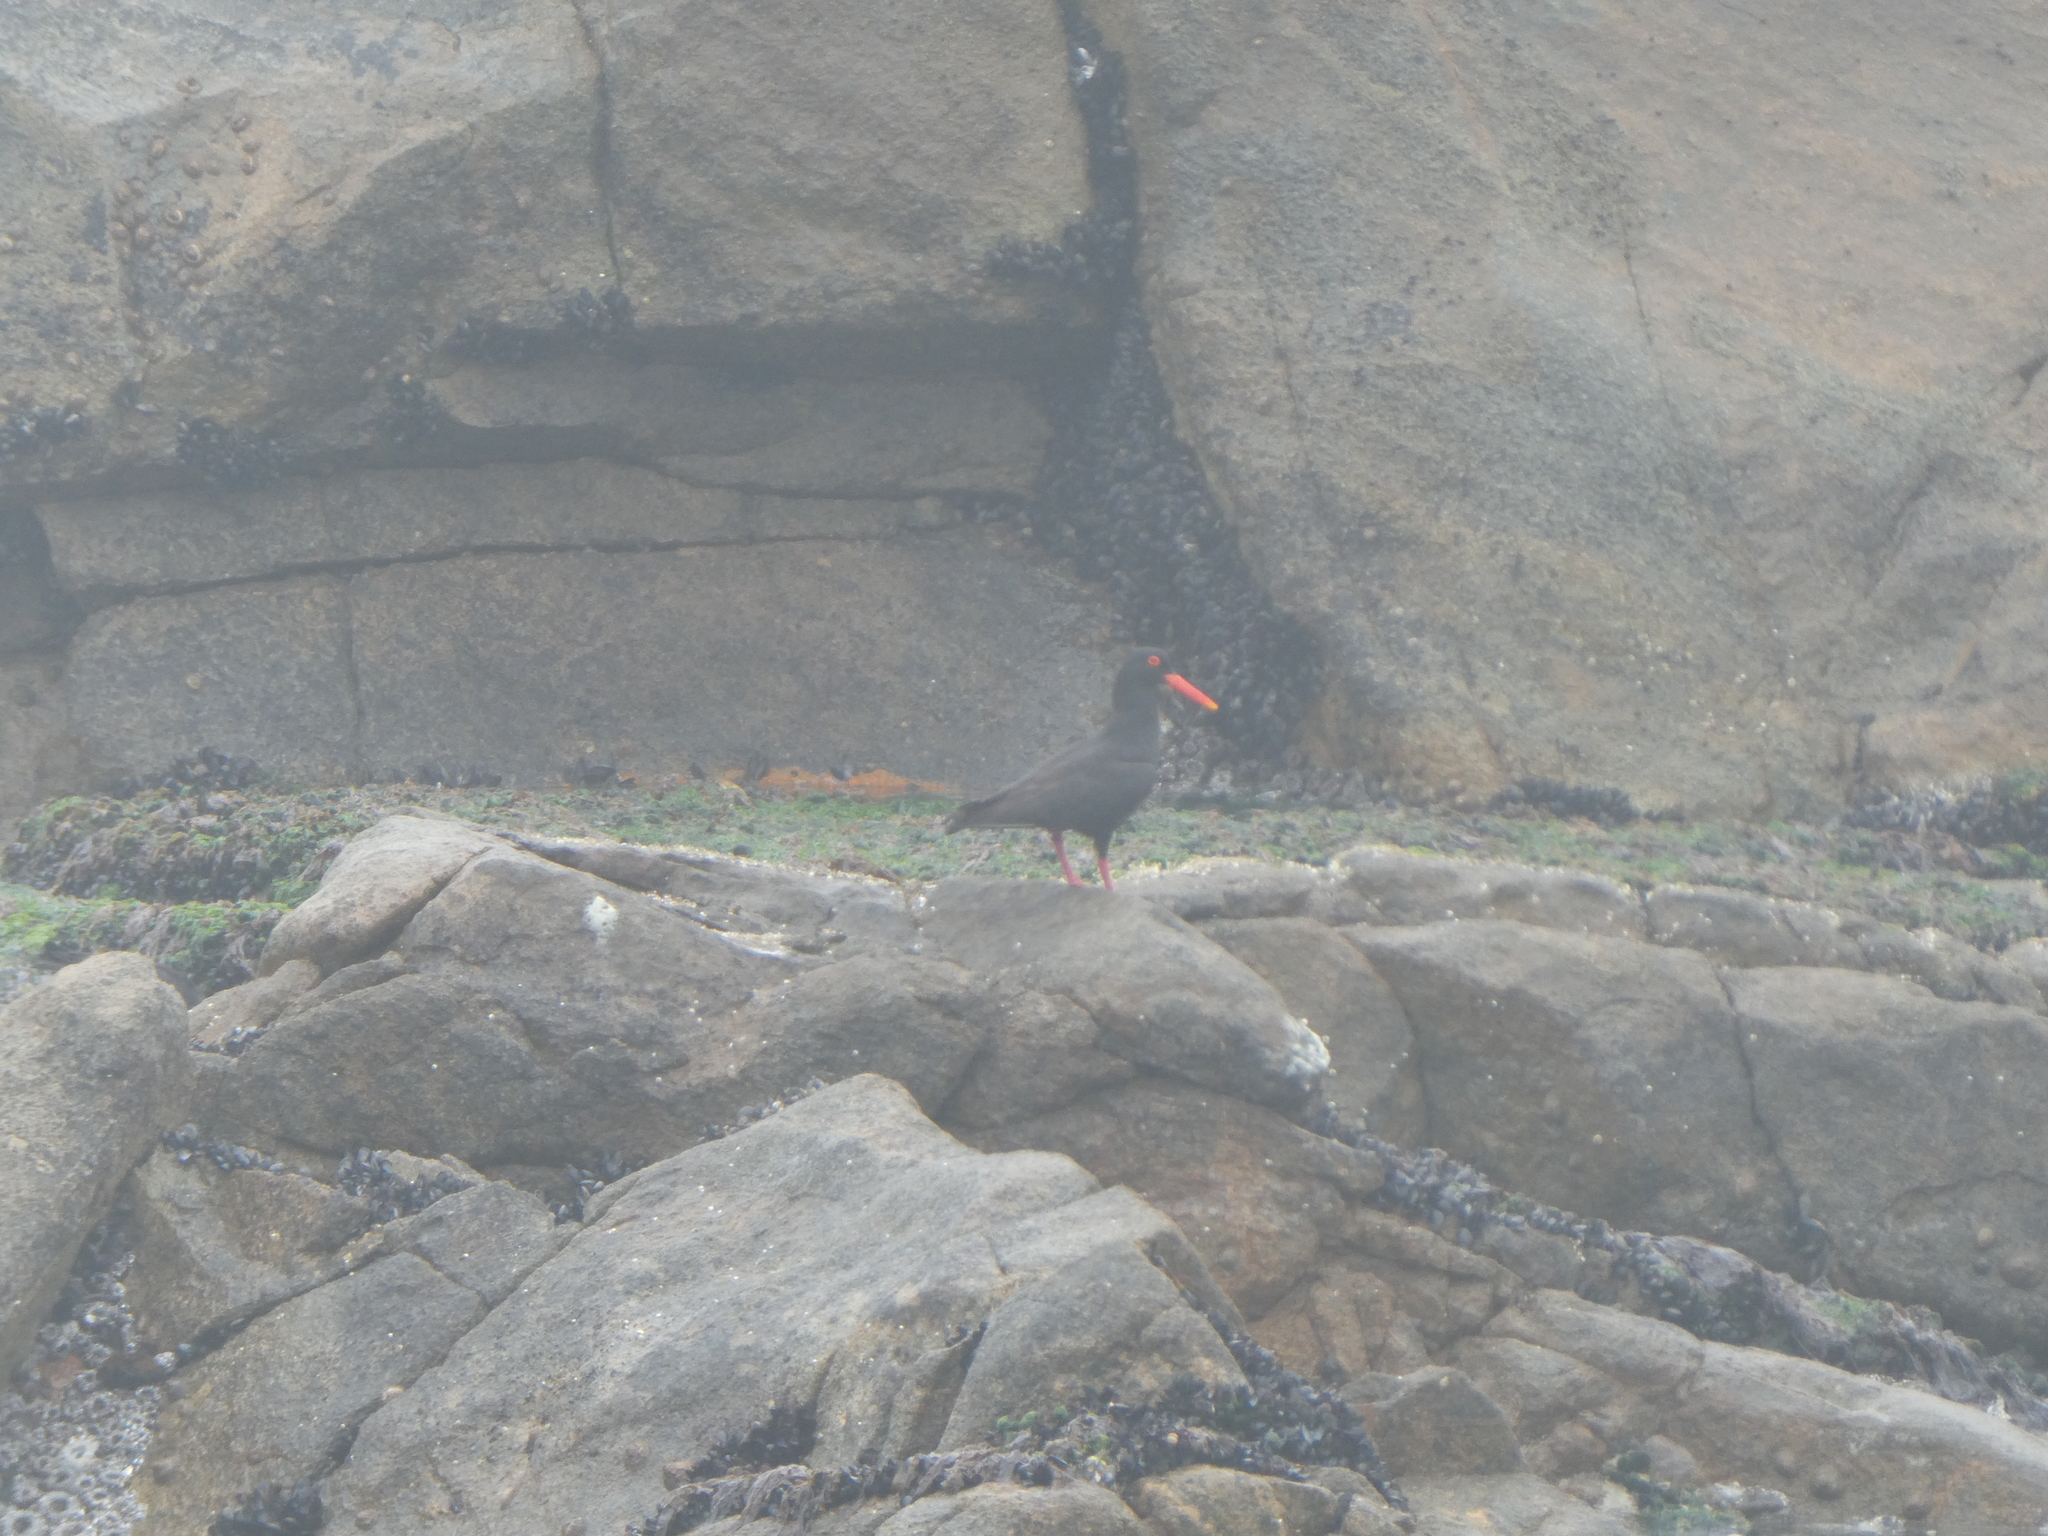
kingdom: Animalia
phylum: Chordata
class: Aves
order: Charadriiformes
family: Haematopodidae
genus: Haematopus
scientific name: Haematopus moquini
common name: African oystercatcher
